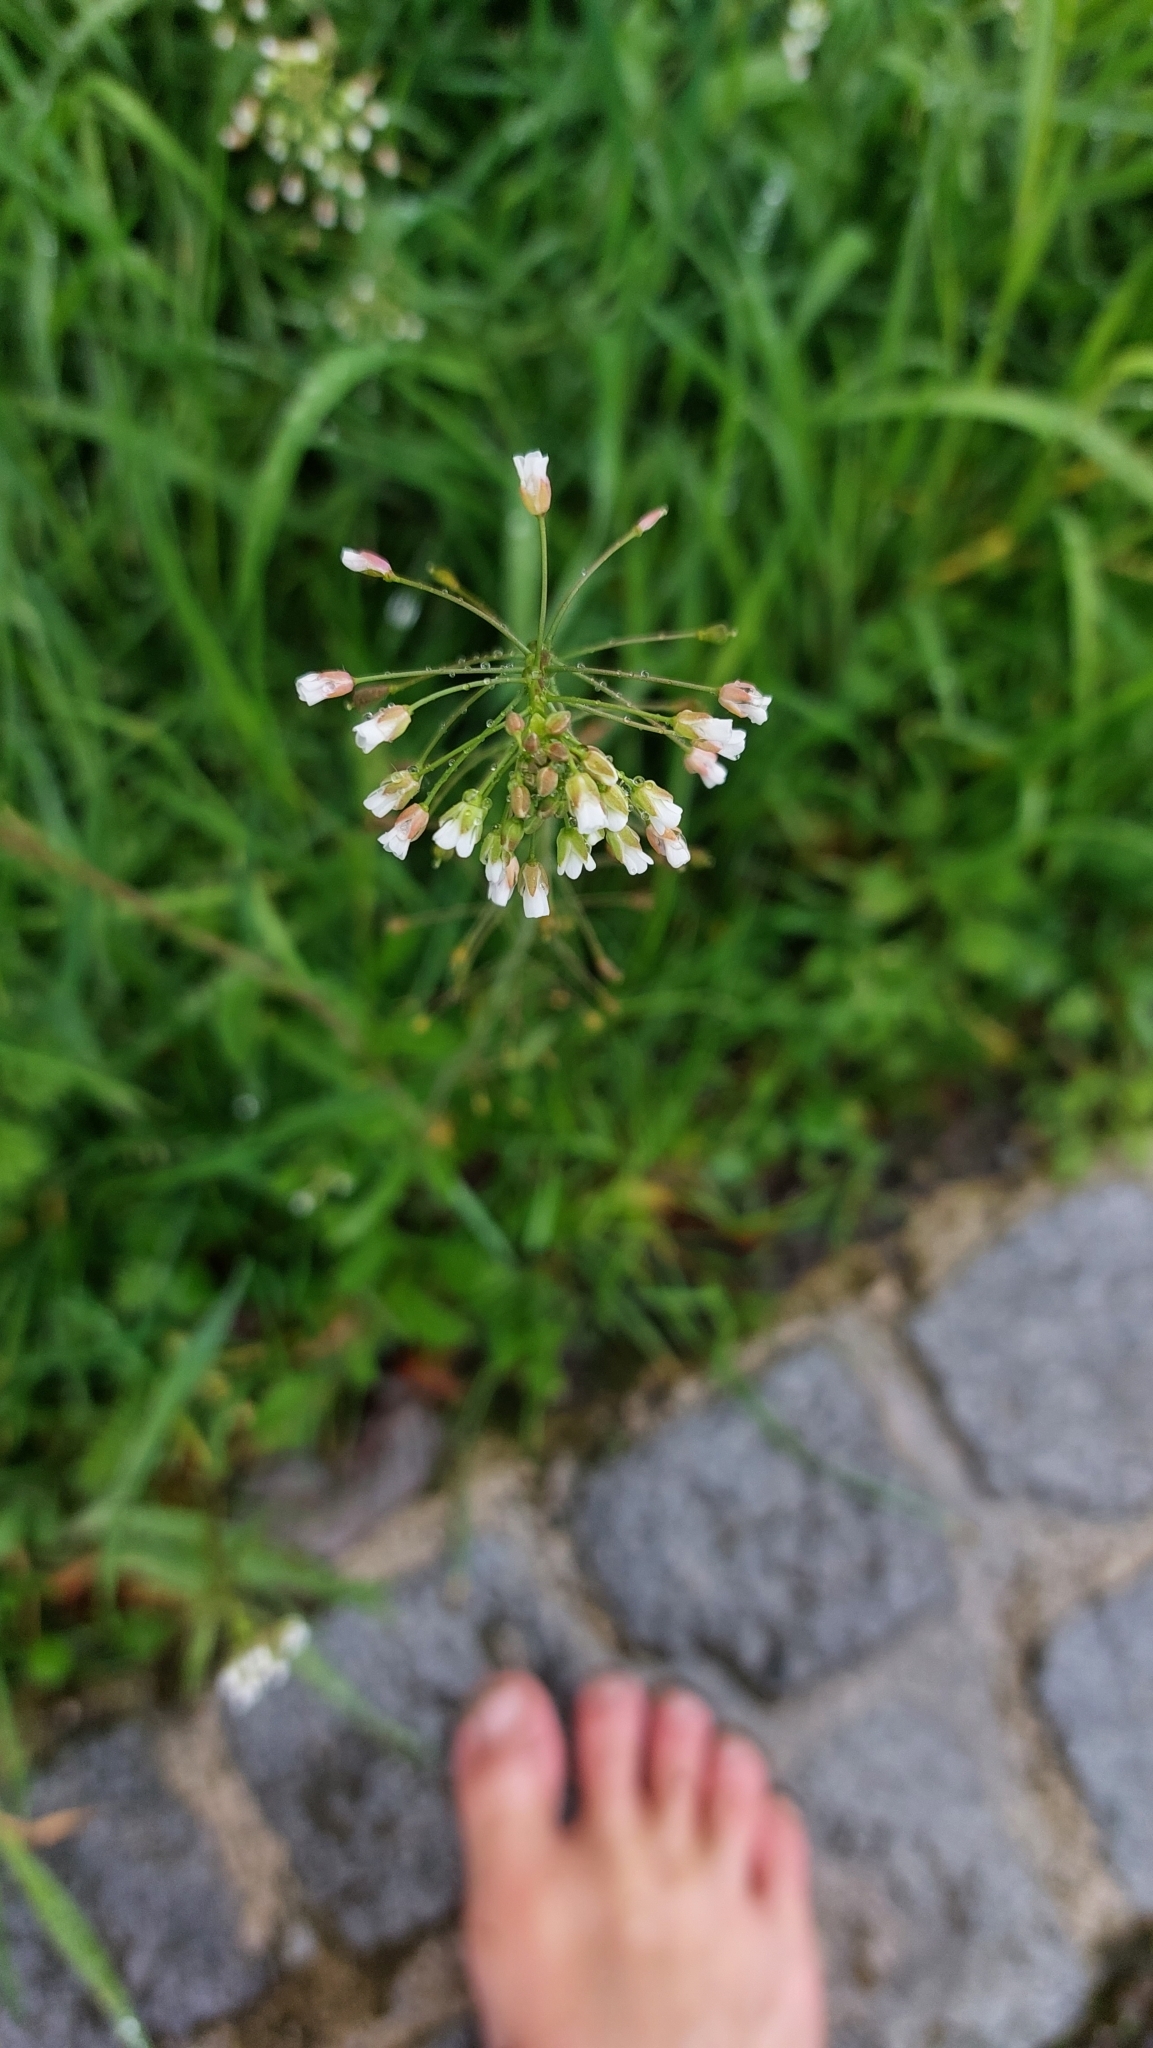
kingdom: Plantae
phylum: Tracheophyta
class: Magnoliopsida
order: Brassicales
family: Brassicaceae
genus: Capsella
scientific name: Capsella bursa-pastoris
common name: Shepherd's purse
